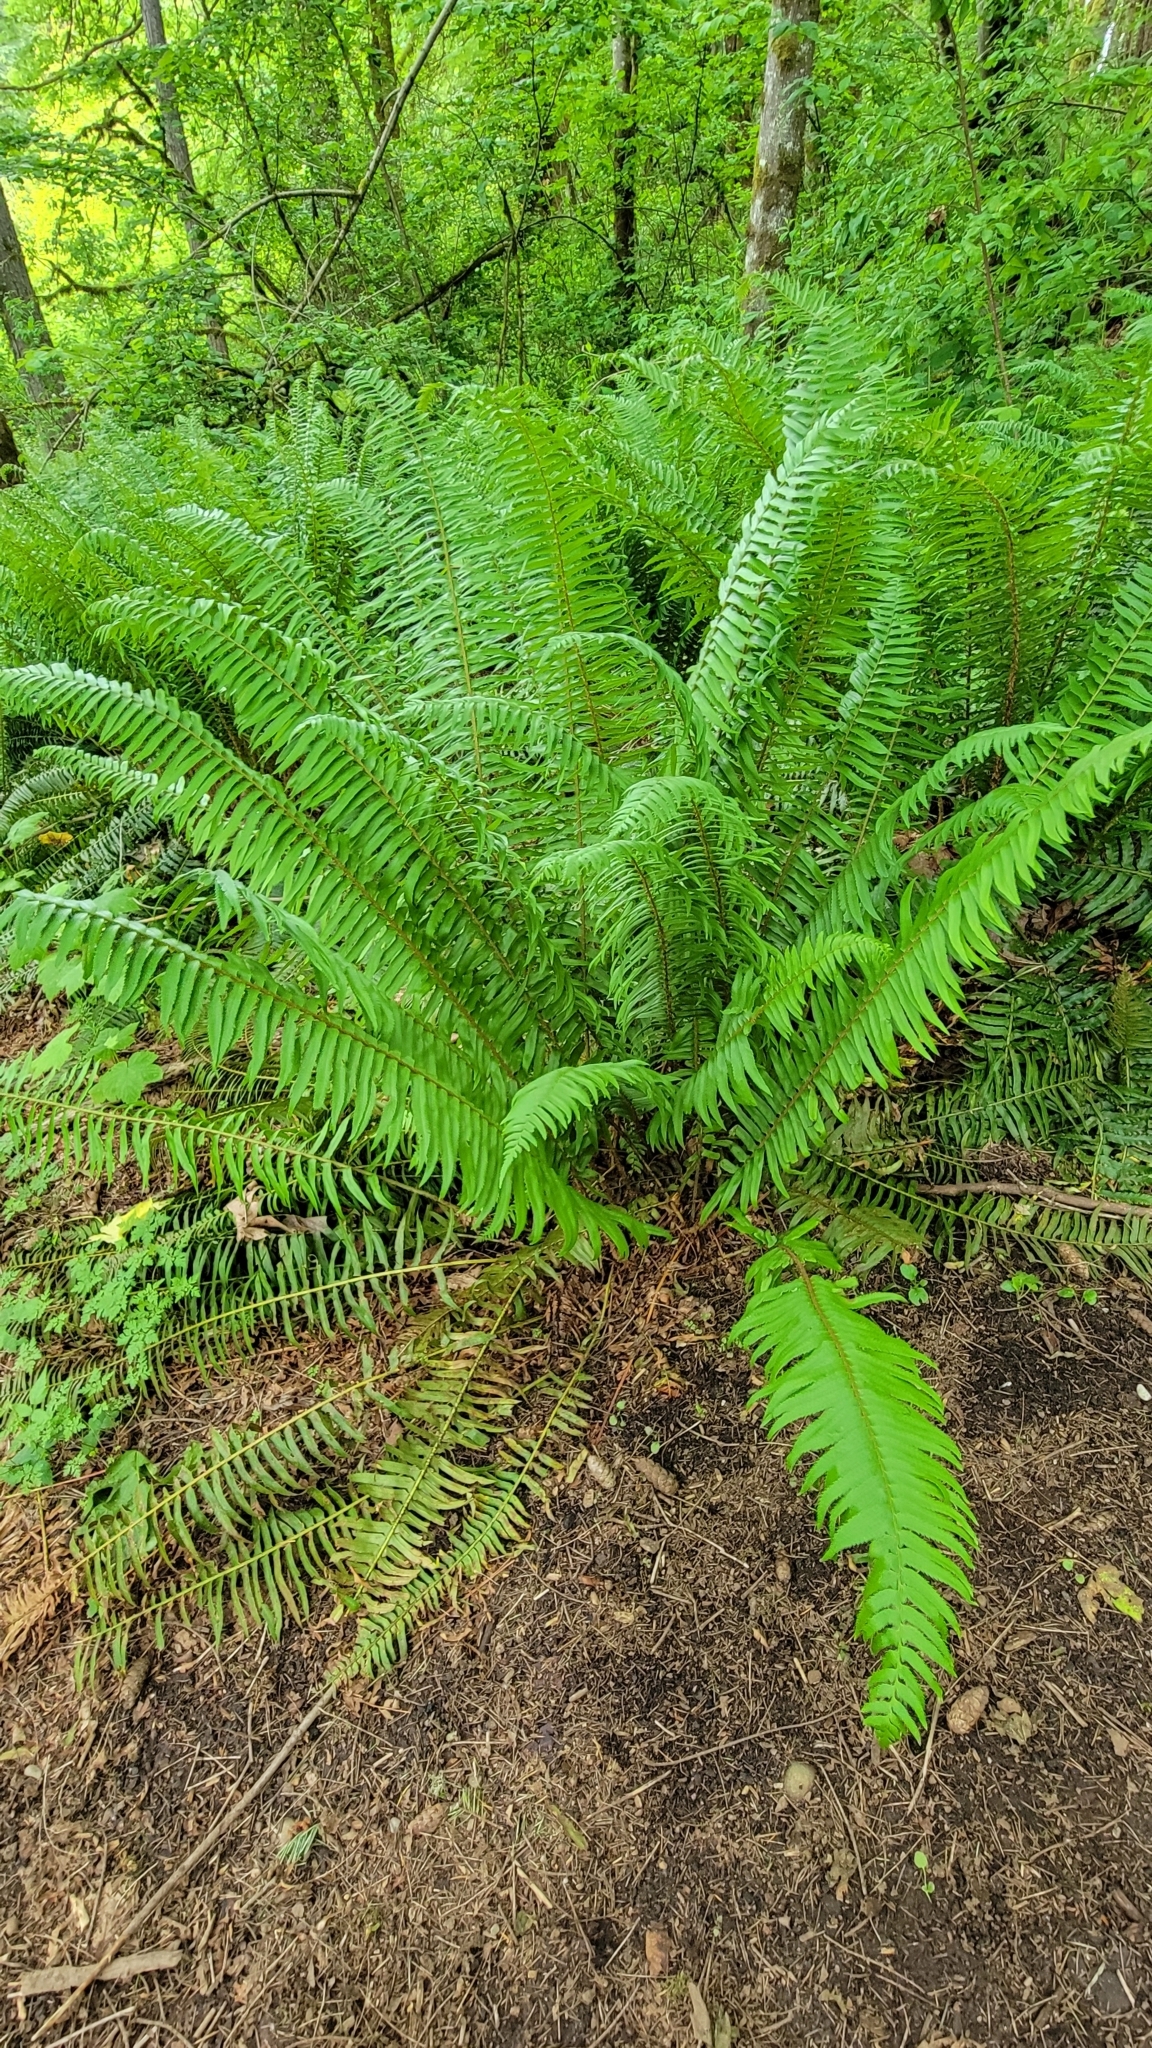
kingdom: Plantae
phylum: Tracheophyta
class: Polypodiopsida
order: Polypodiales
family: Dryopteridaceae
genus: Polystichum
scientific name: Polystichum munitum
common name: Western sword-fern
